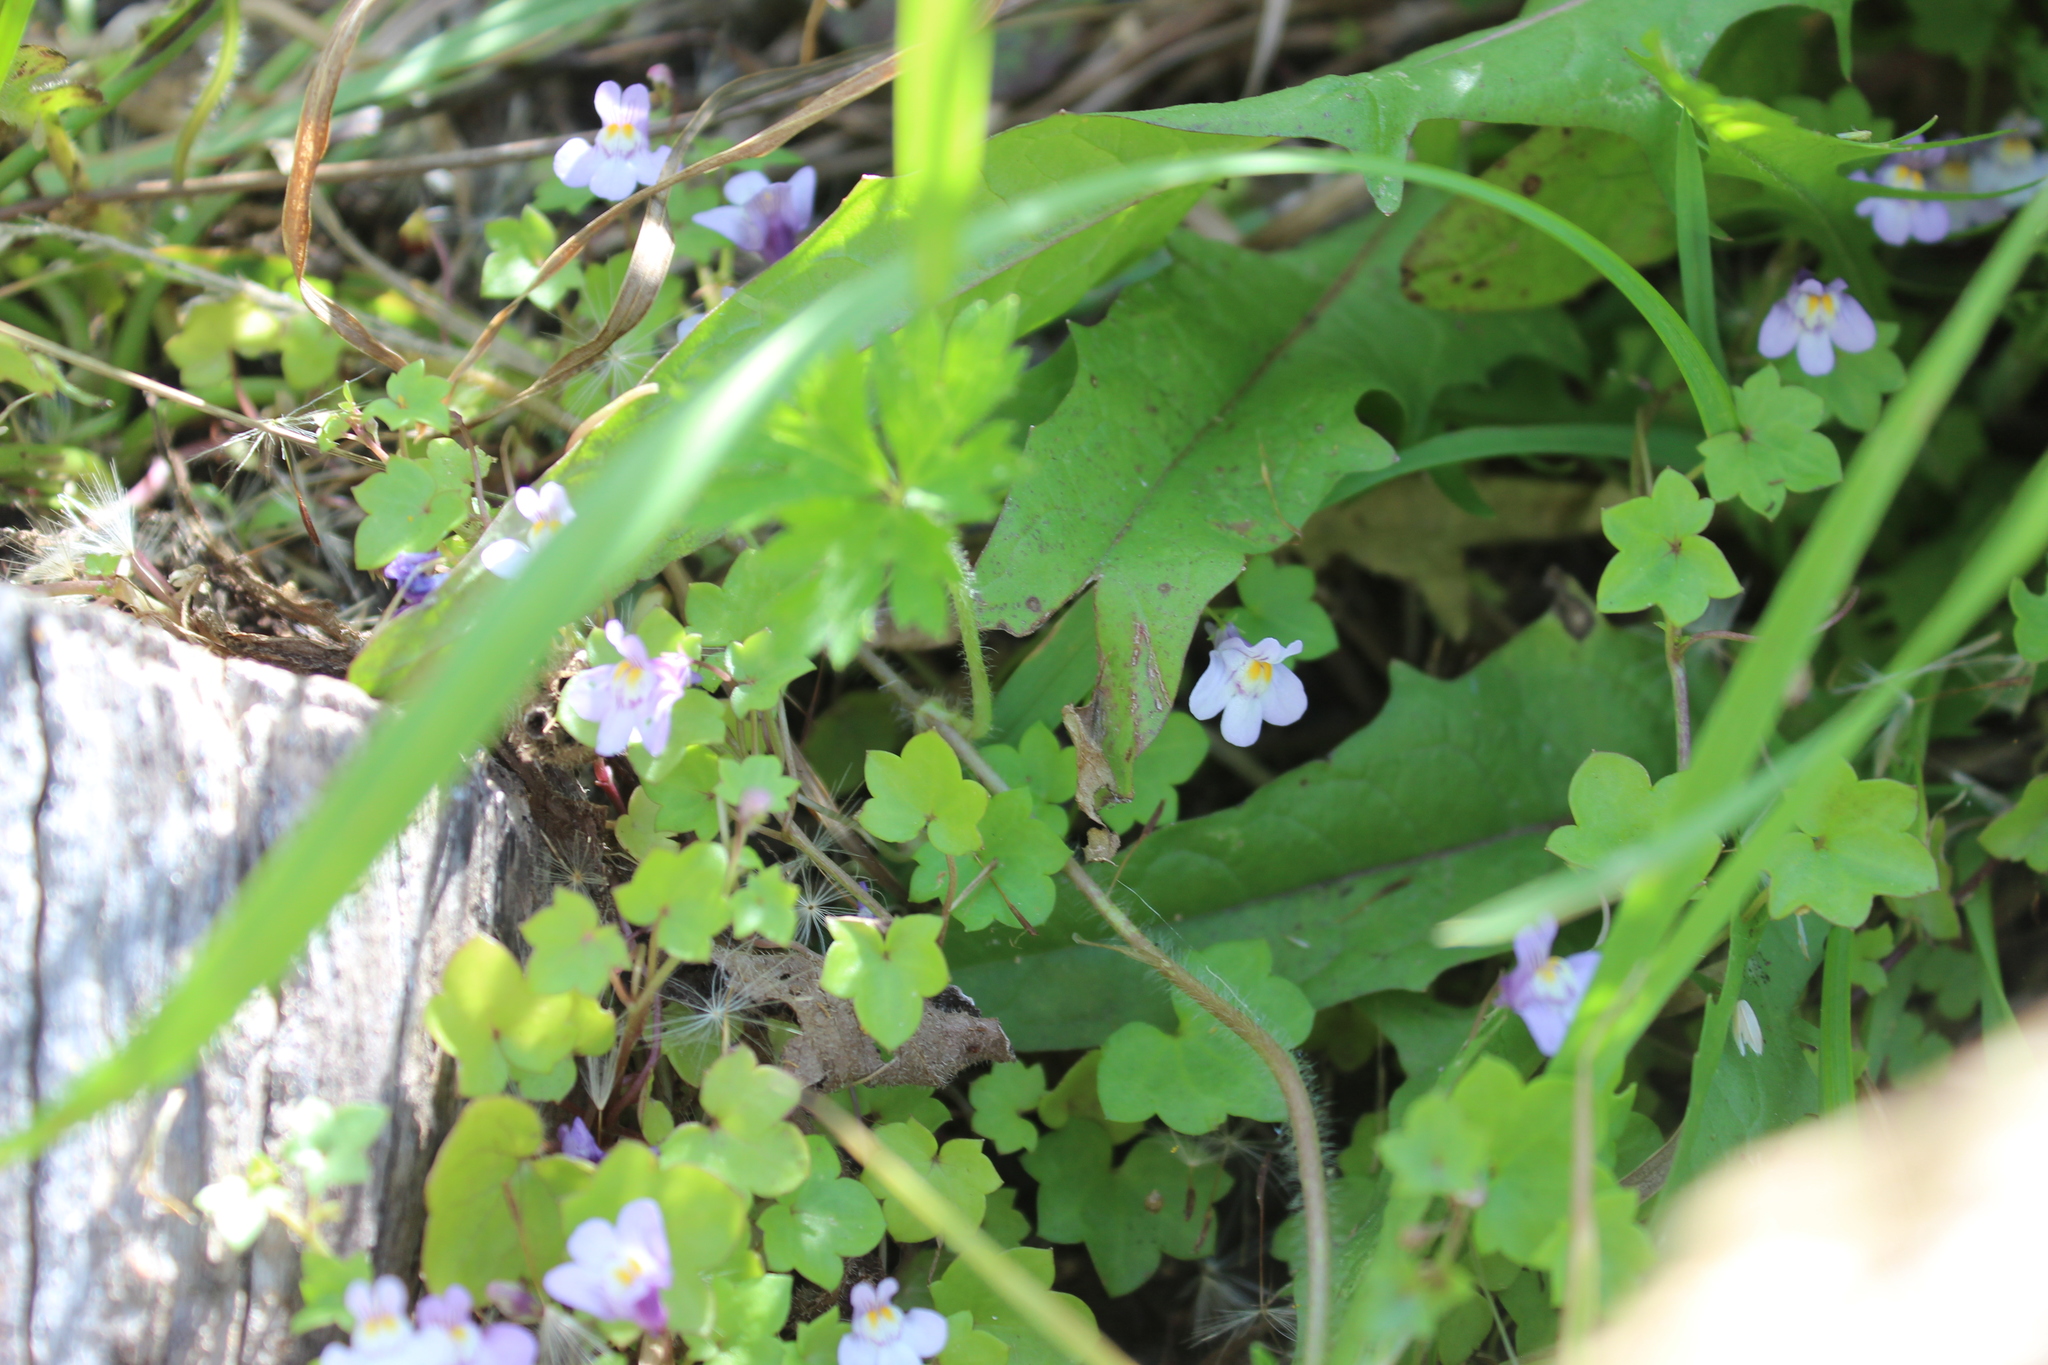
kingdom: Plantae
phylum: Tracheophyta
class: Magnoliopsida
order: Lamiales
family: Plantaginaceae
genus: Cymbalaria
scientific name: Cymbalaria muralis
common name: Ivy-leaved toadflax
